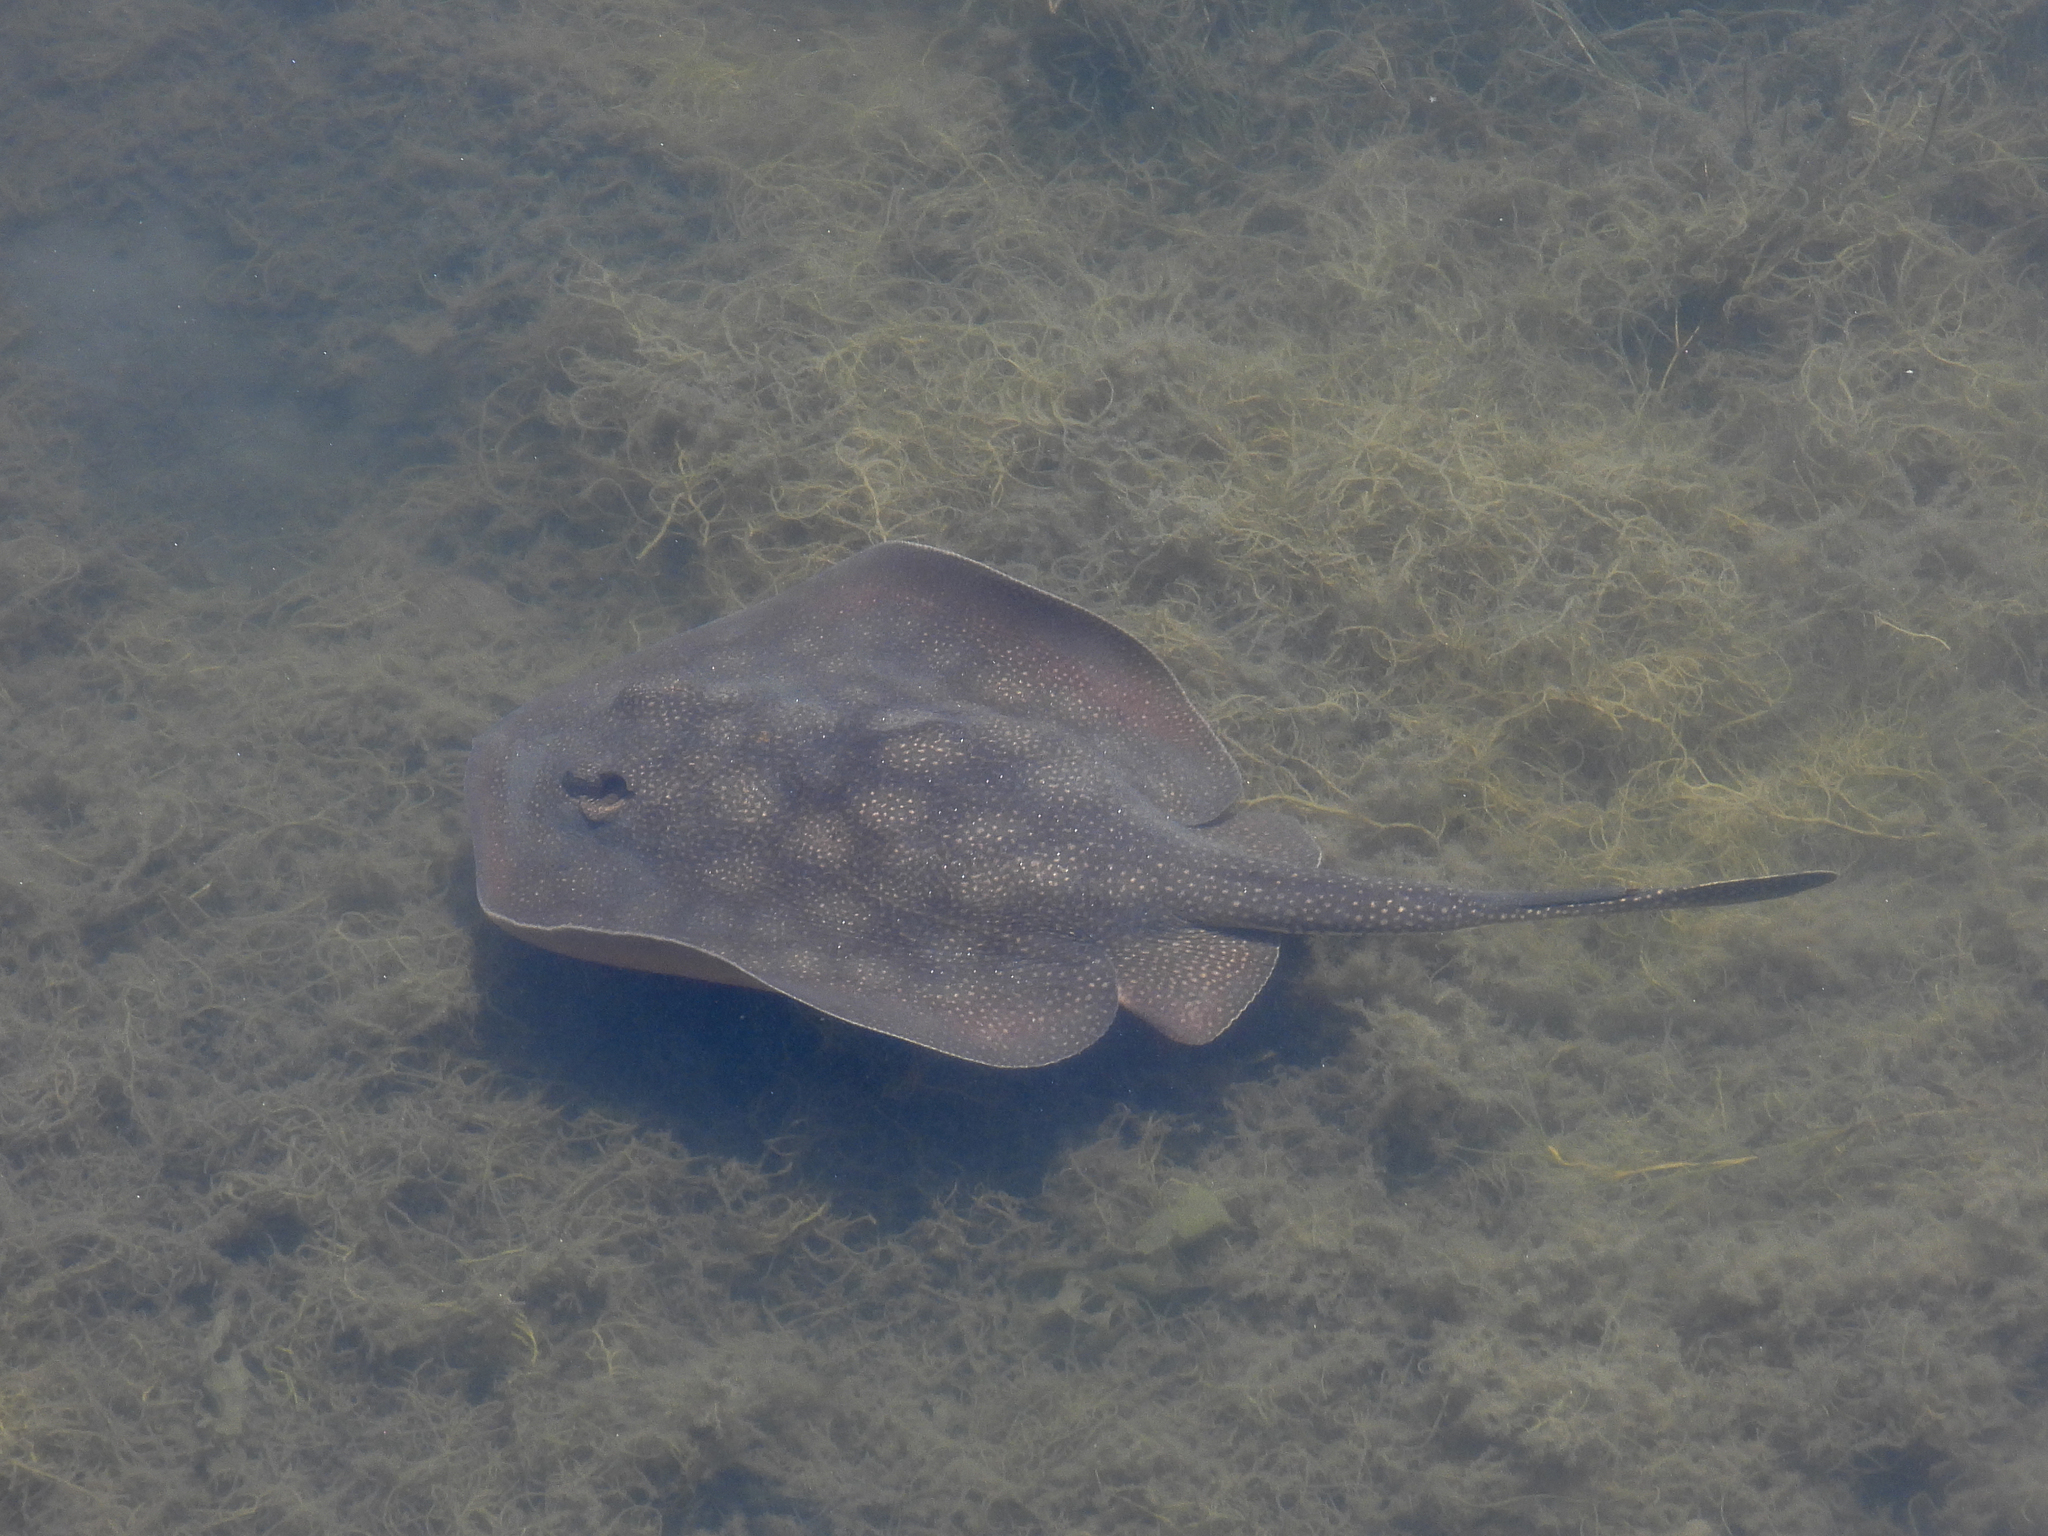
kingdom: Animalia
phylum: Chordata
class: Elasmobranchii
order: Myliobatiformes
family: Urolophidae
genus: Urolophus
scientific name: Urolophus halleri
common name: Round stingray
